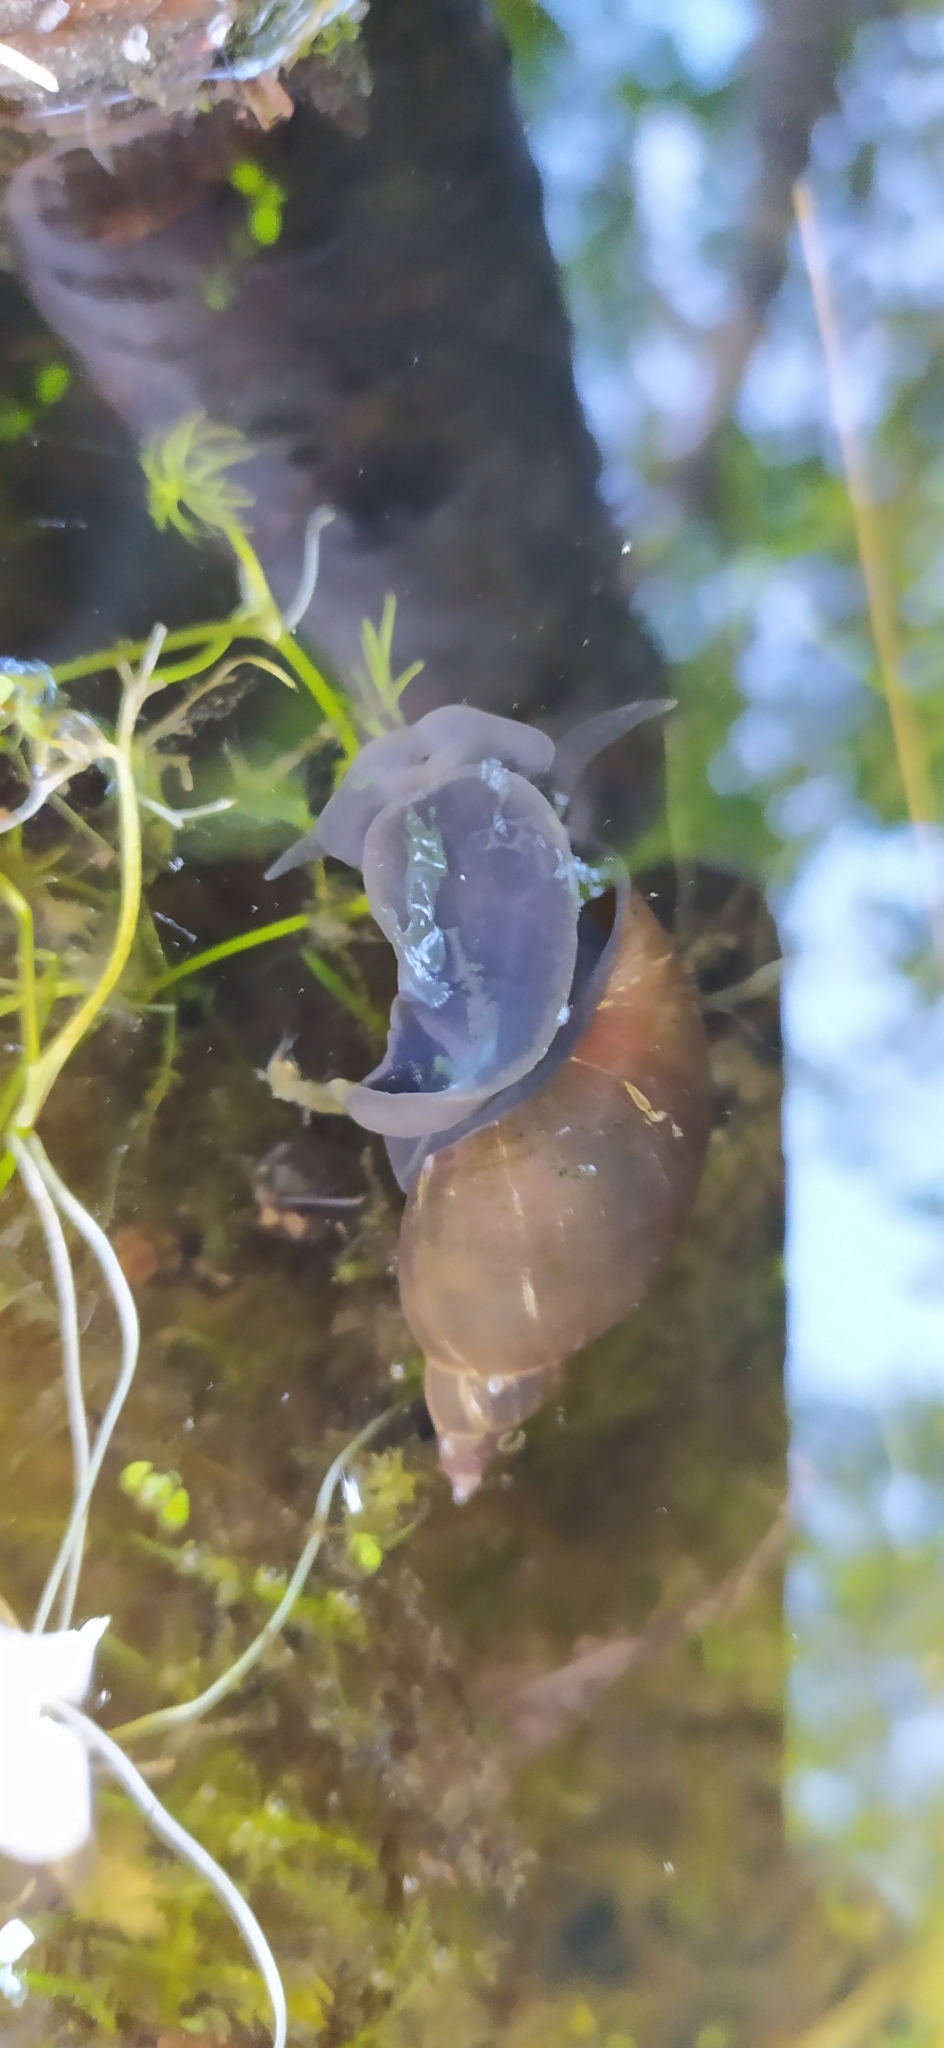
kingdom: Animalia
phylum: Mollusca
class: Gastropoda
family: Lymnaeidae
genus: Lymnaea
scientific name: Lymnaea stagnalis
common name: Great pond snail
